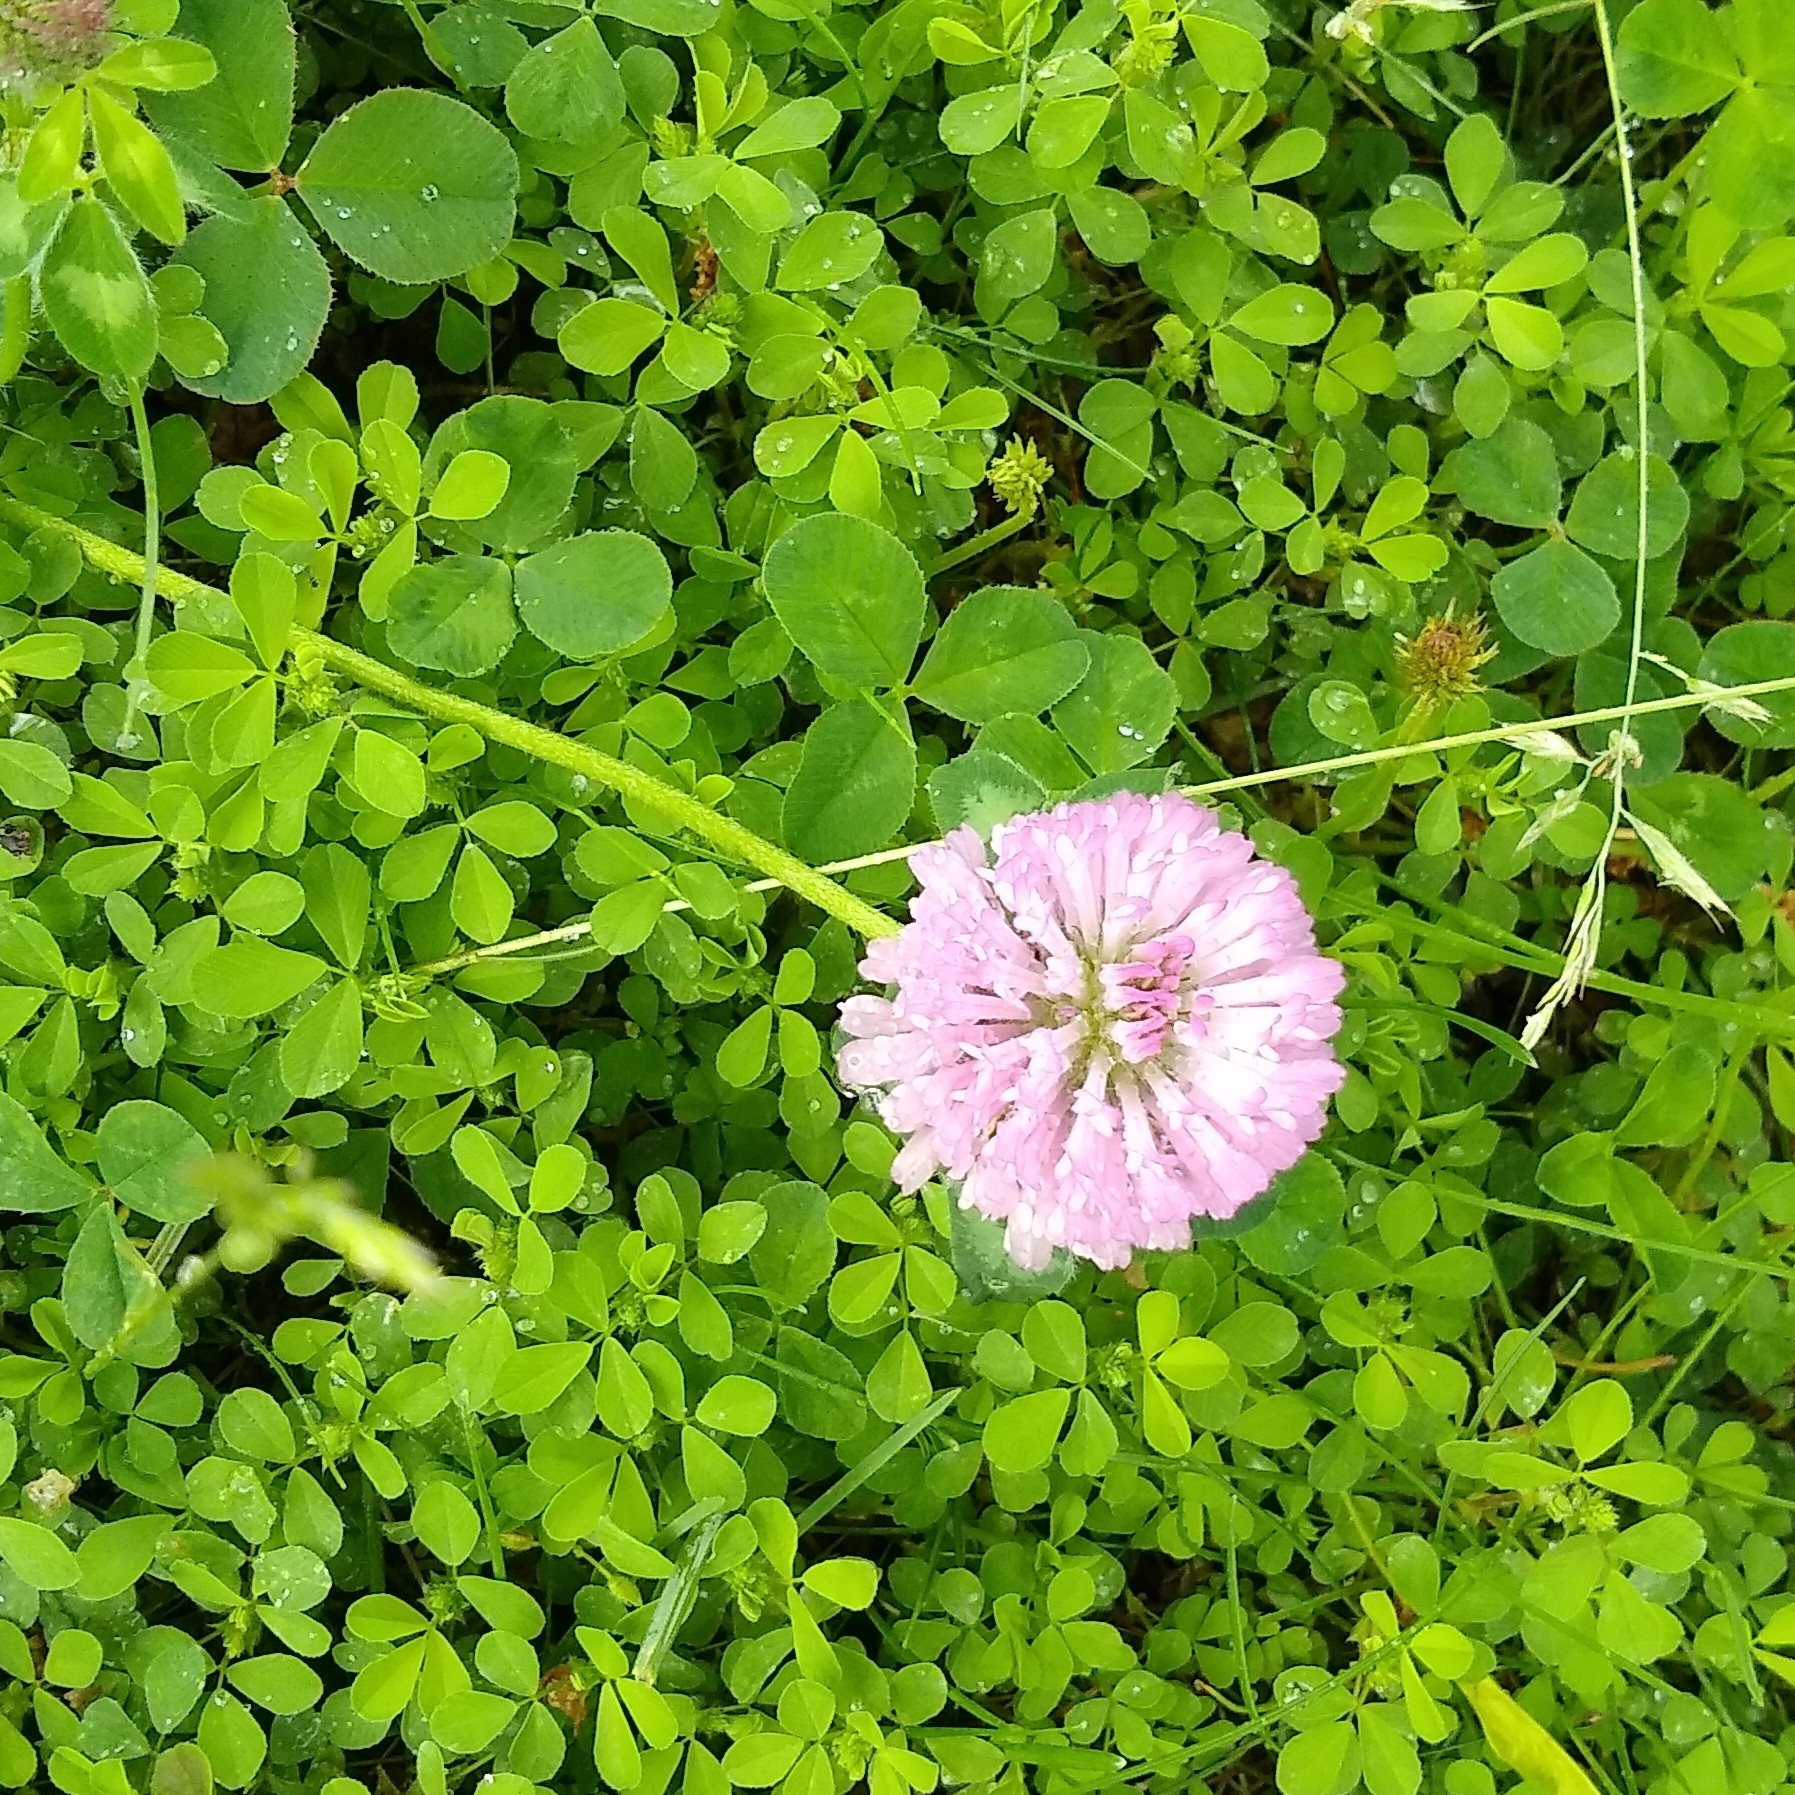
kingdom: Plantae
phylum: Tracheophyta
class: Magnoliopsida
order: Fabales
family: Fabaceae
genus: Trifolium
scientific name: Trifolium pratense
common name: Red clover
